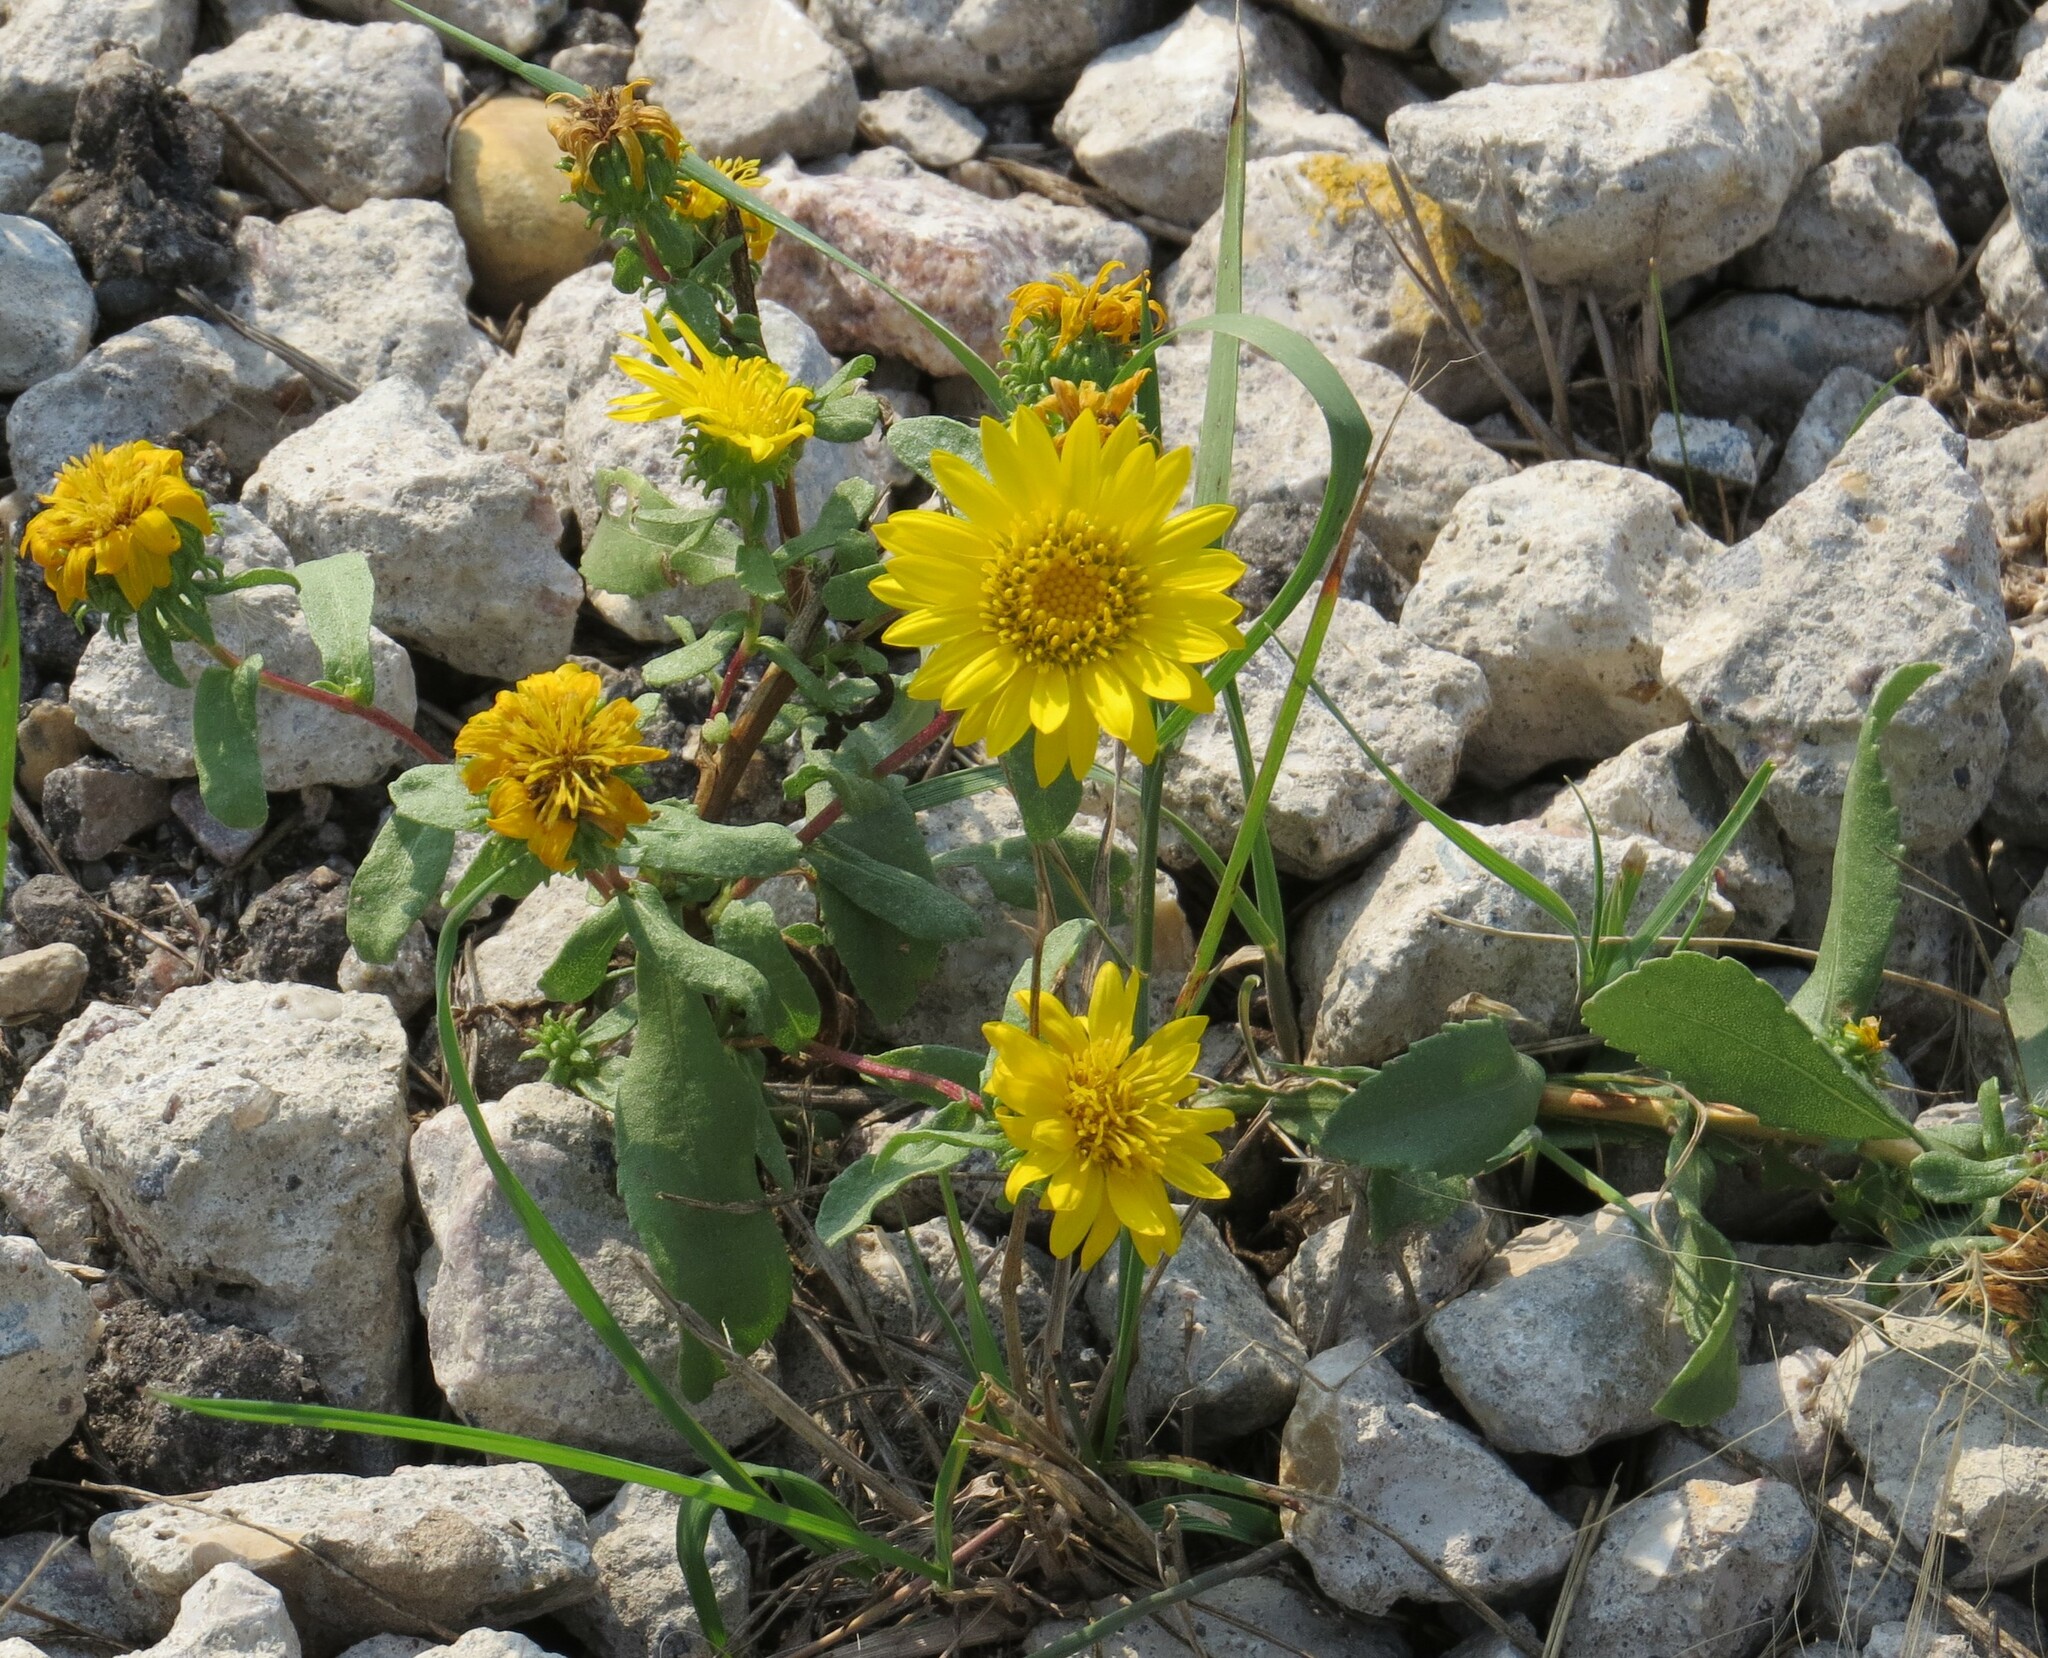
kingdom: Plantae
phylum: Tracheophyta
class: Magnoliopsida
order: Asterales
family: Asteraceae
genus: Grindelia
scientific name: Grindelia squarrosa
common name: Curly-cup gumweed
